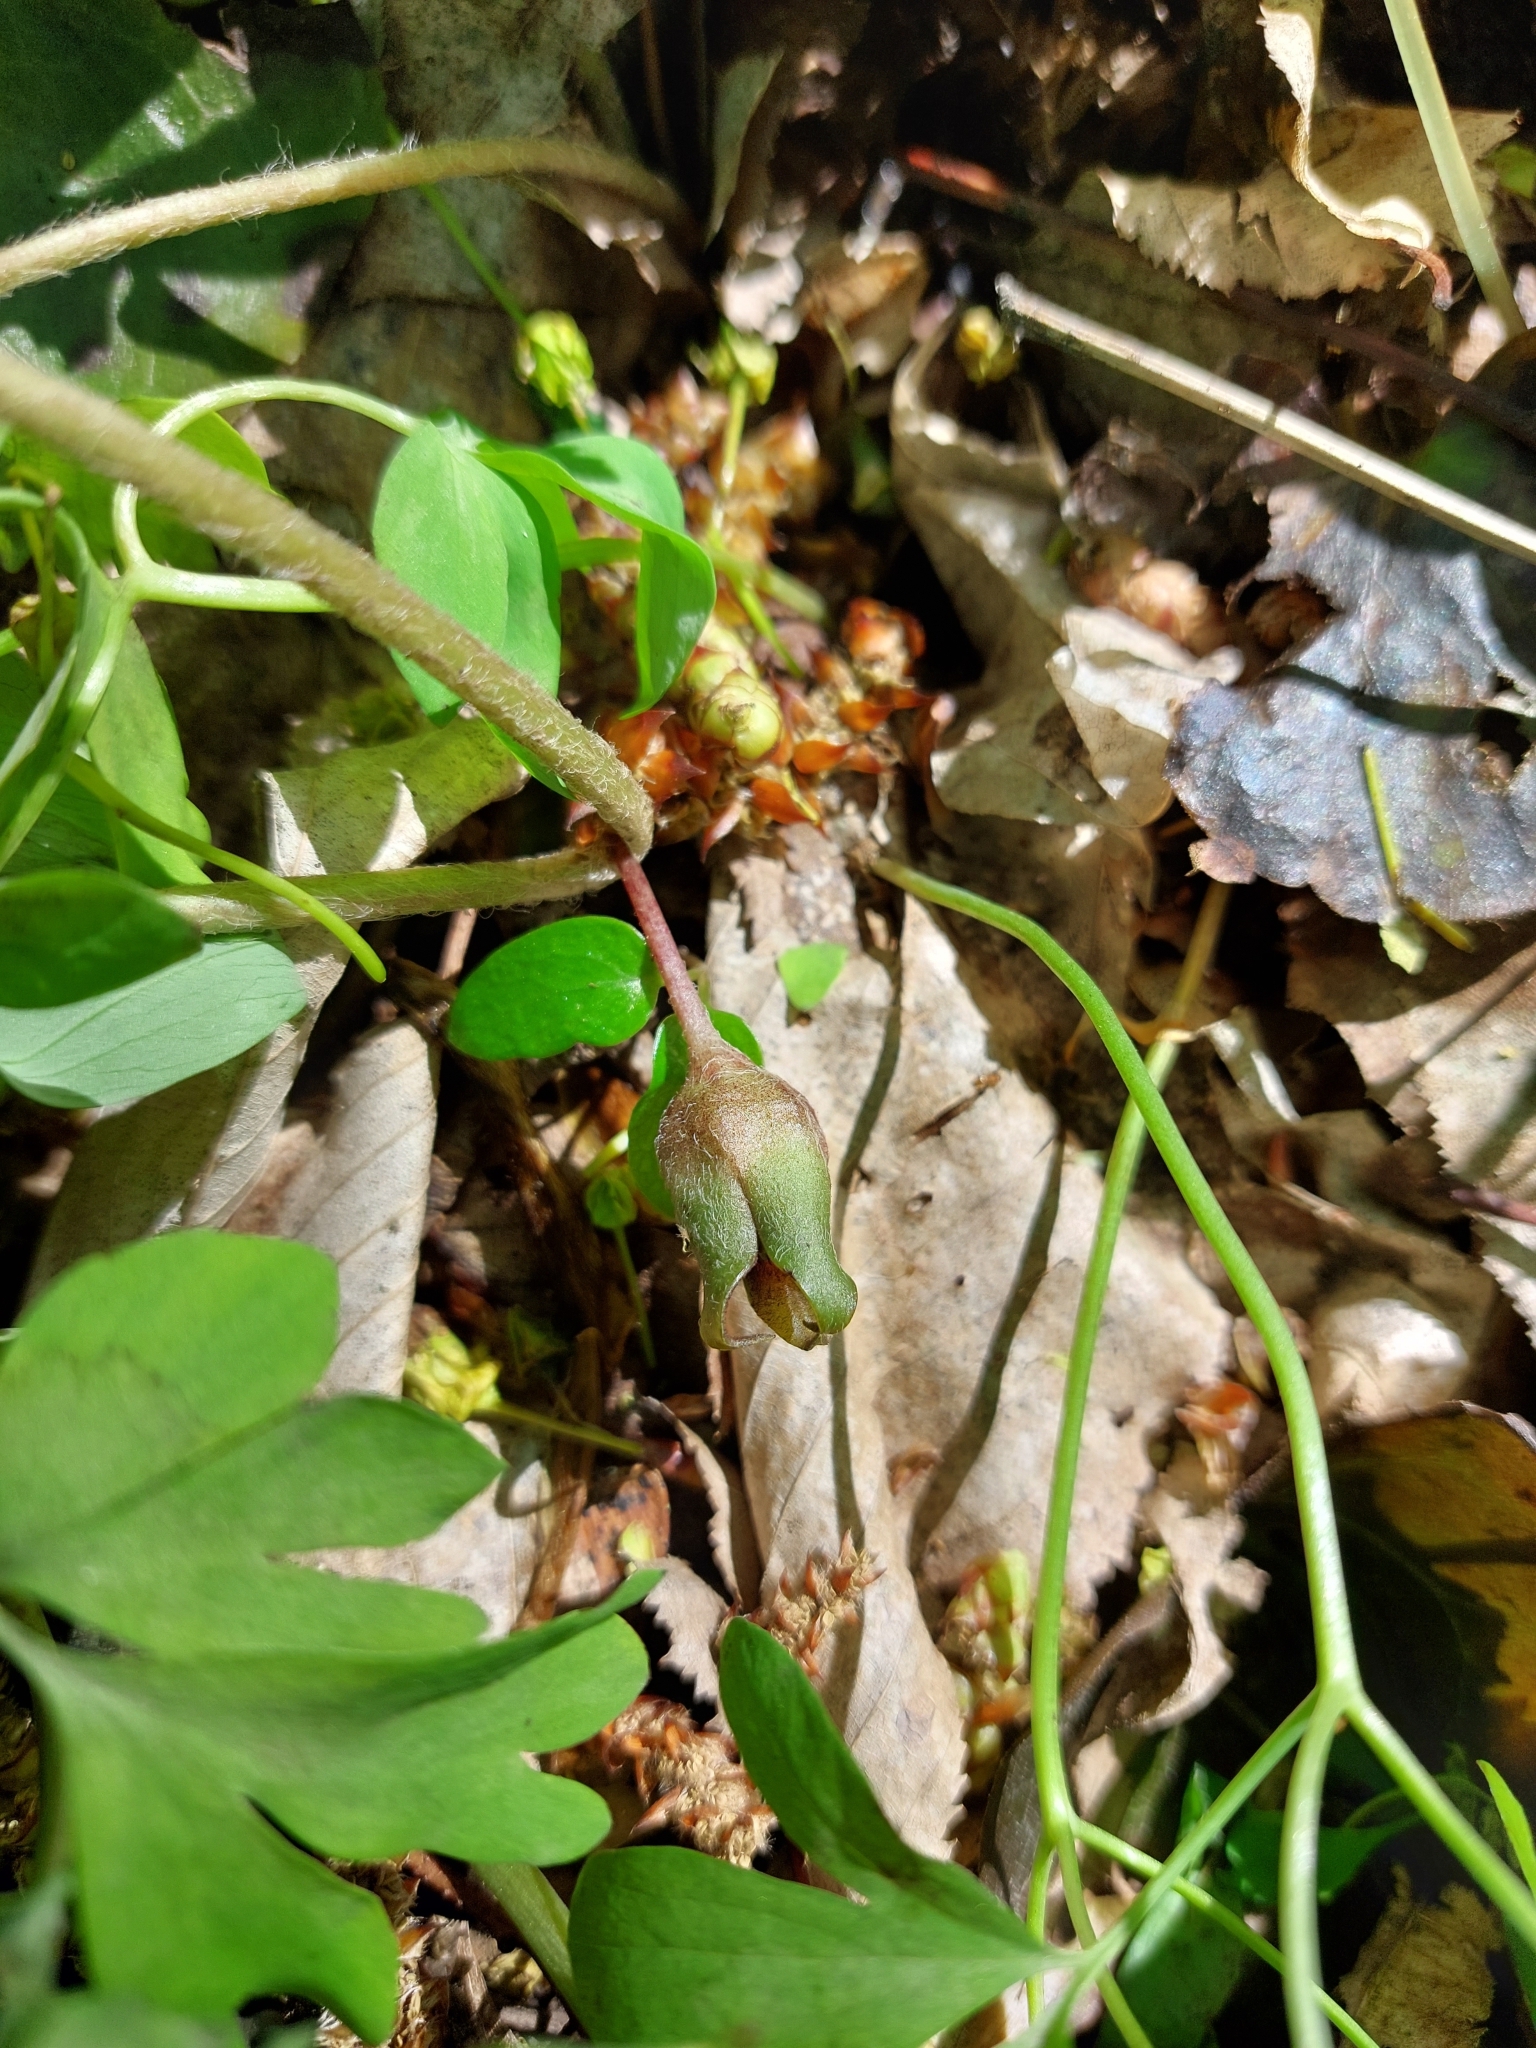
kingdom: Plantae
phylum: Tracheophyta
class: Magnoliopsida
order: Piperales
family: Aristolochiaceae
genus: Asarum
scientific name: Asarum europaeum
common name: Asarabacca
